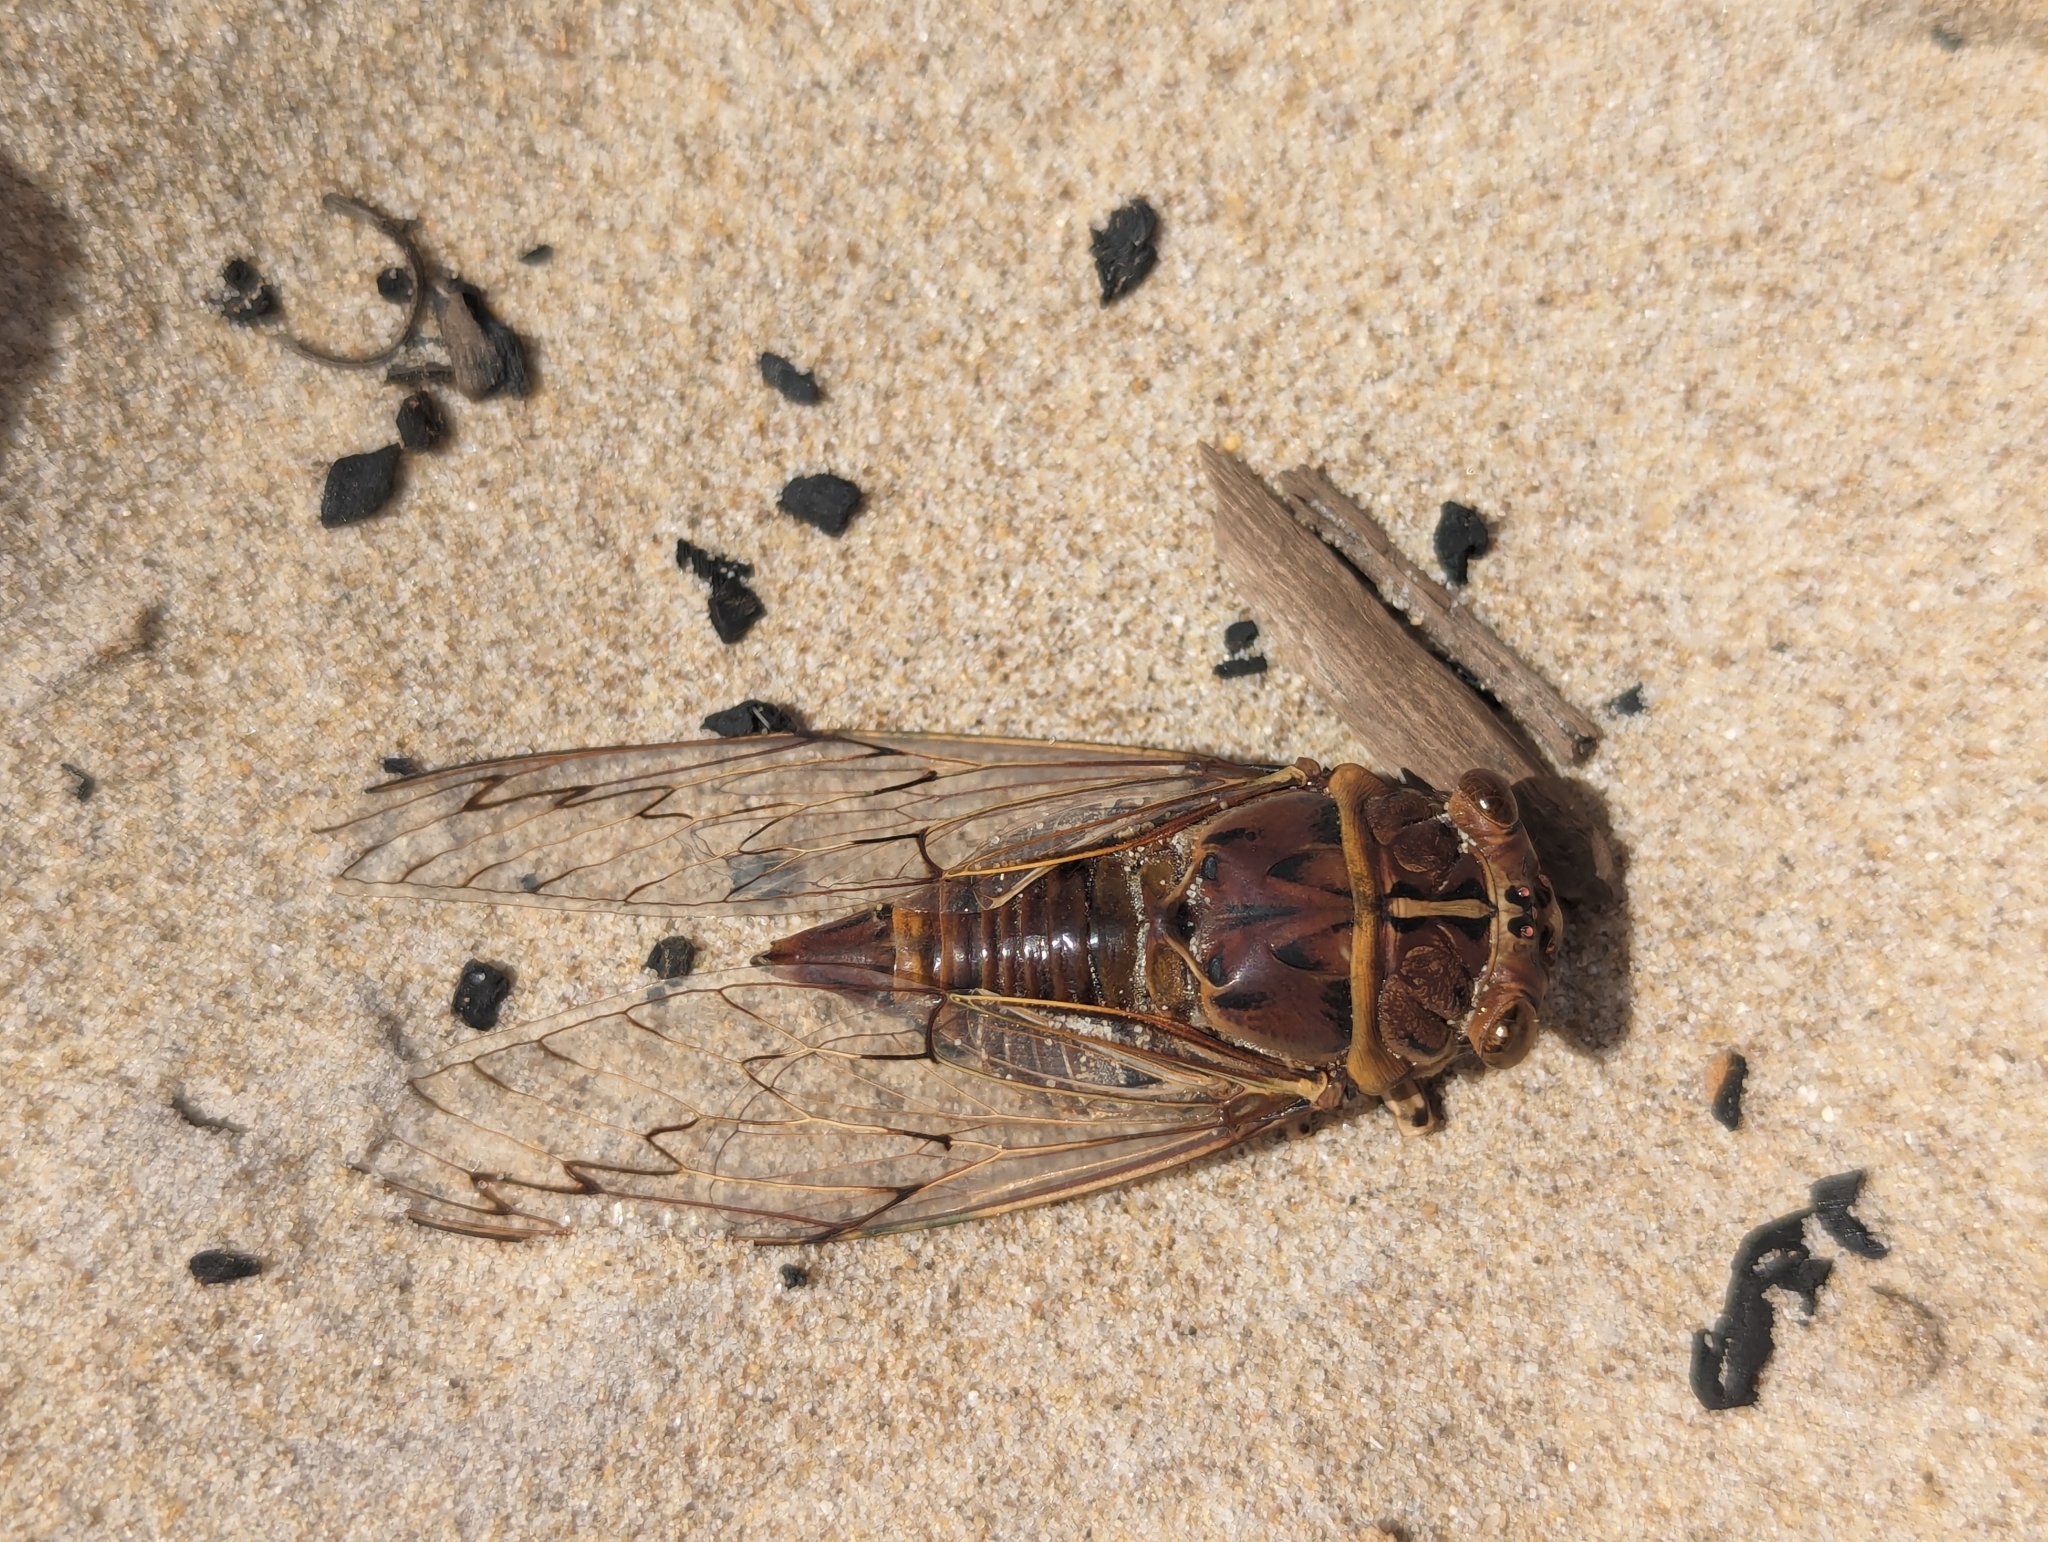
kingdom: Animalia
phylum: Arthropoda
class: Insecta
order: Hemiptera
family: Cicadidae
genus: Henicopsaltria
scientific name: Henicopsaltria eydouxii
